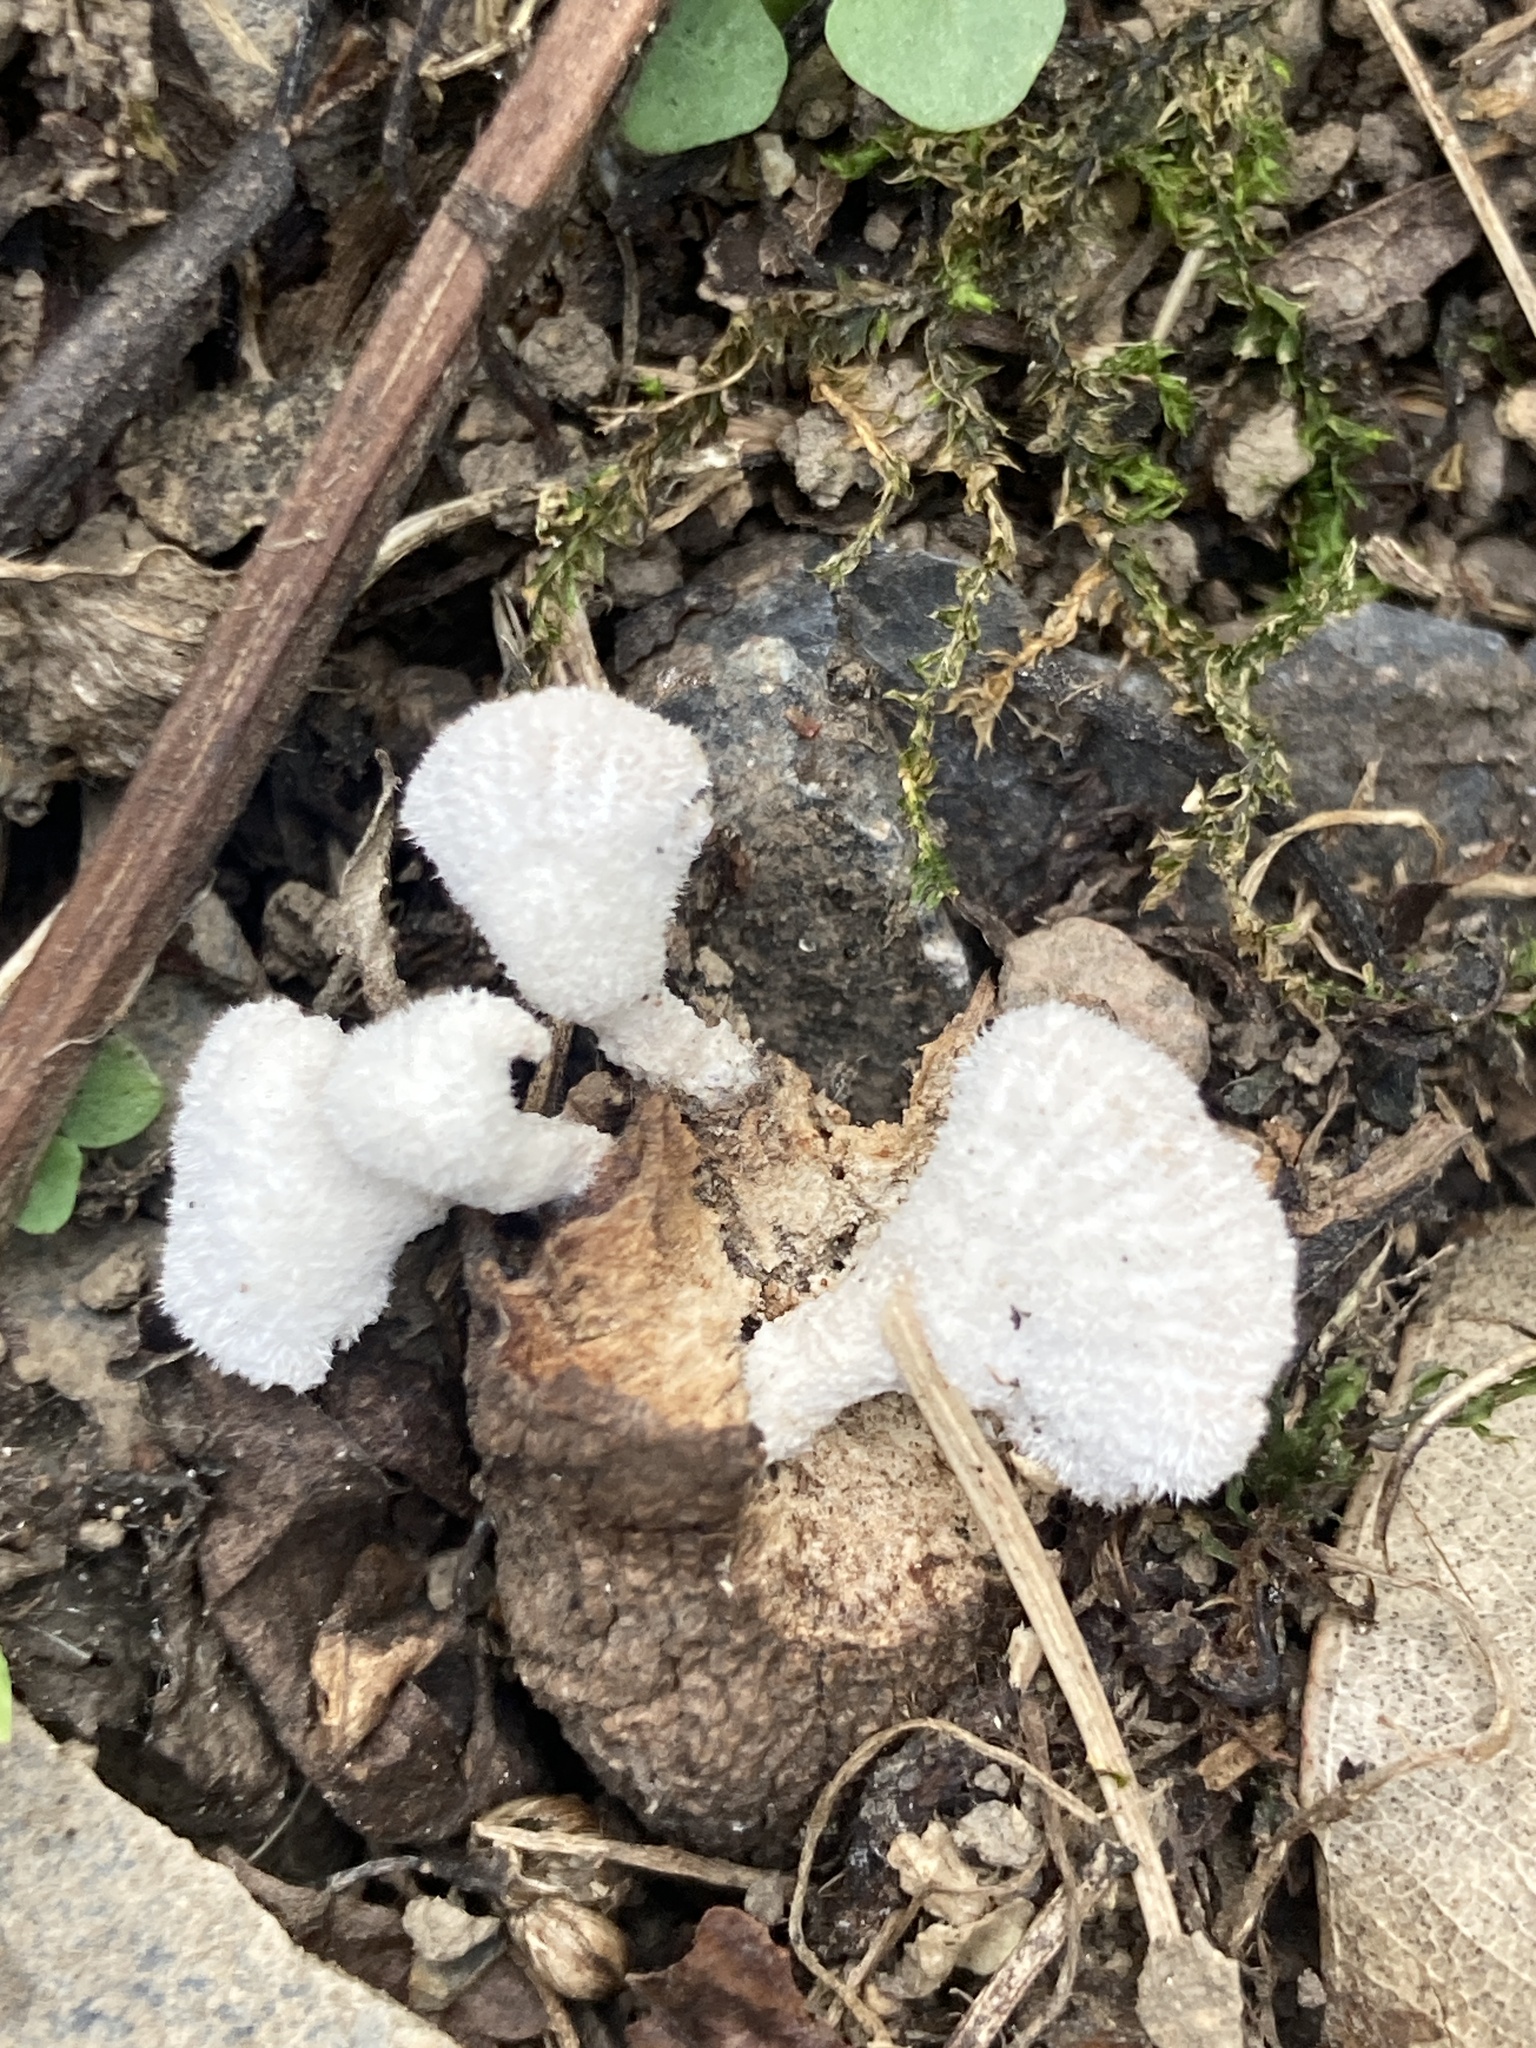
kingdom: Fungi
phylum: Basidiomycota
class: Agaricomycetes
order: Agaricales
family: Schizophyllaceae
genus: Schizophyllum
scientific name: Schizophyllum commune
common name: Common porecrust
